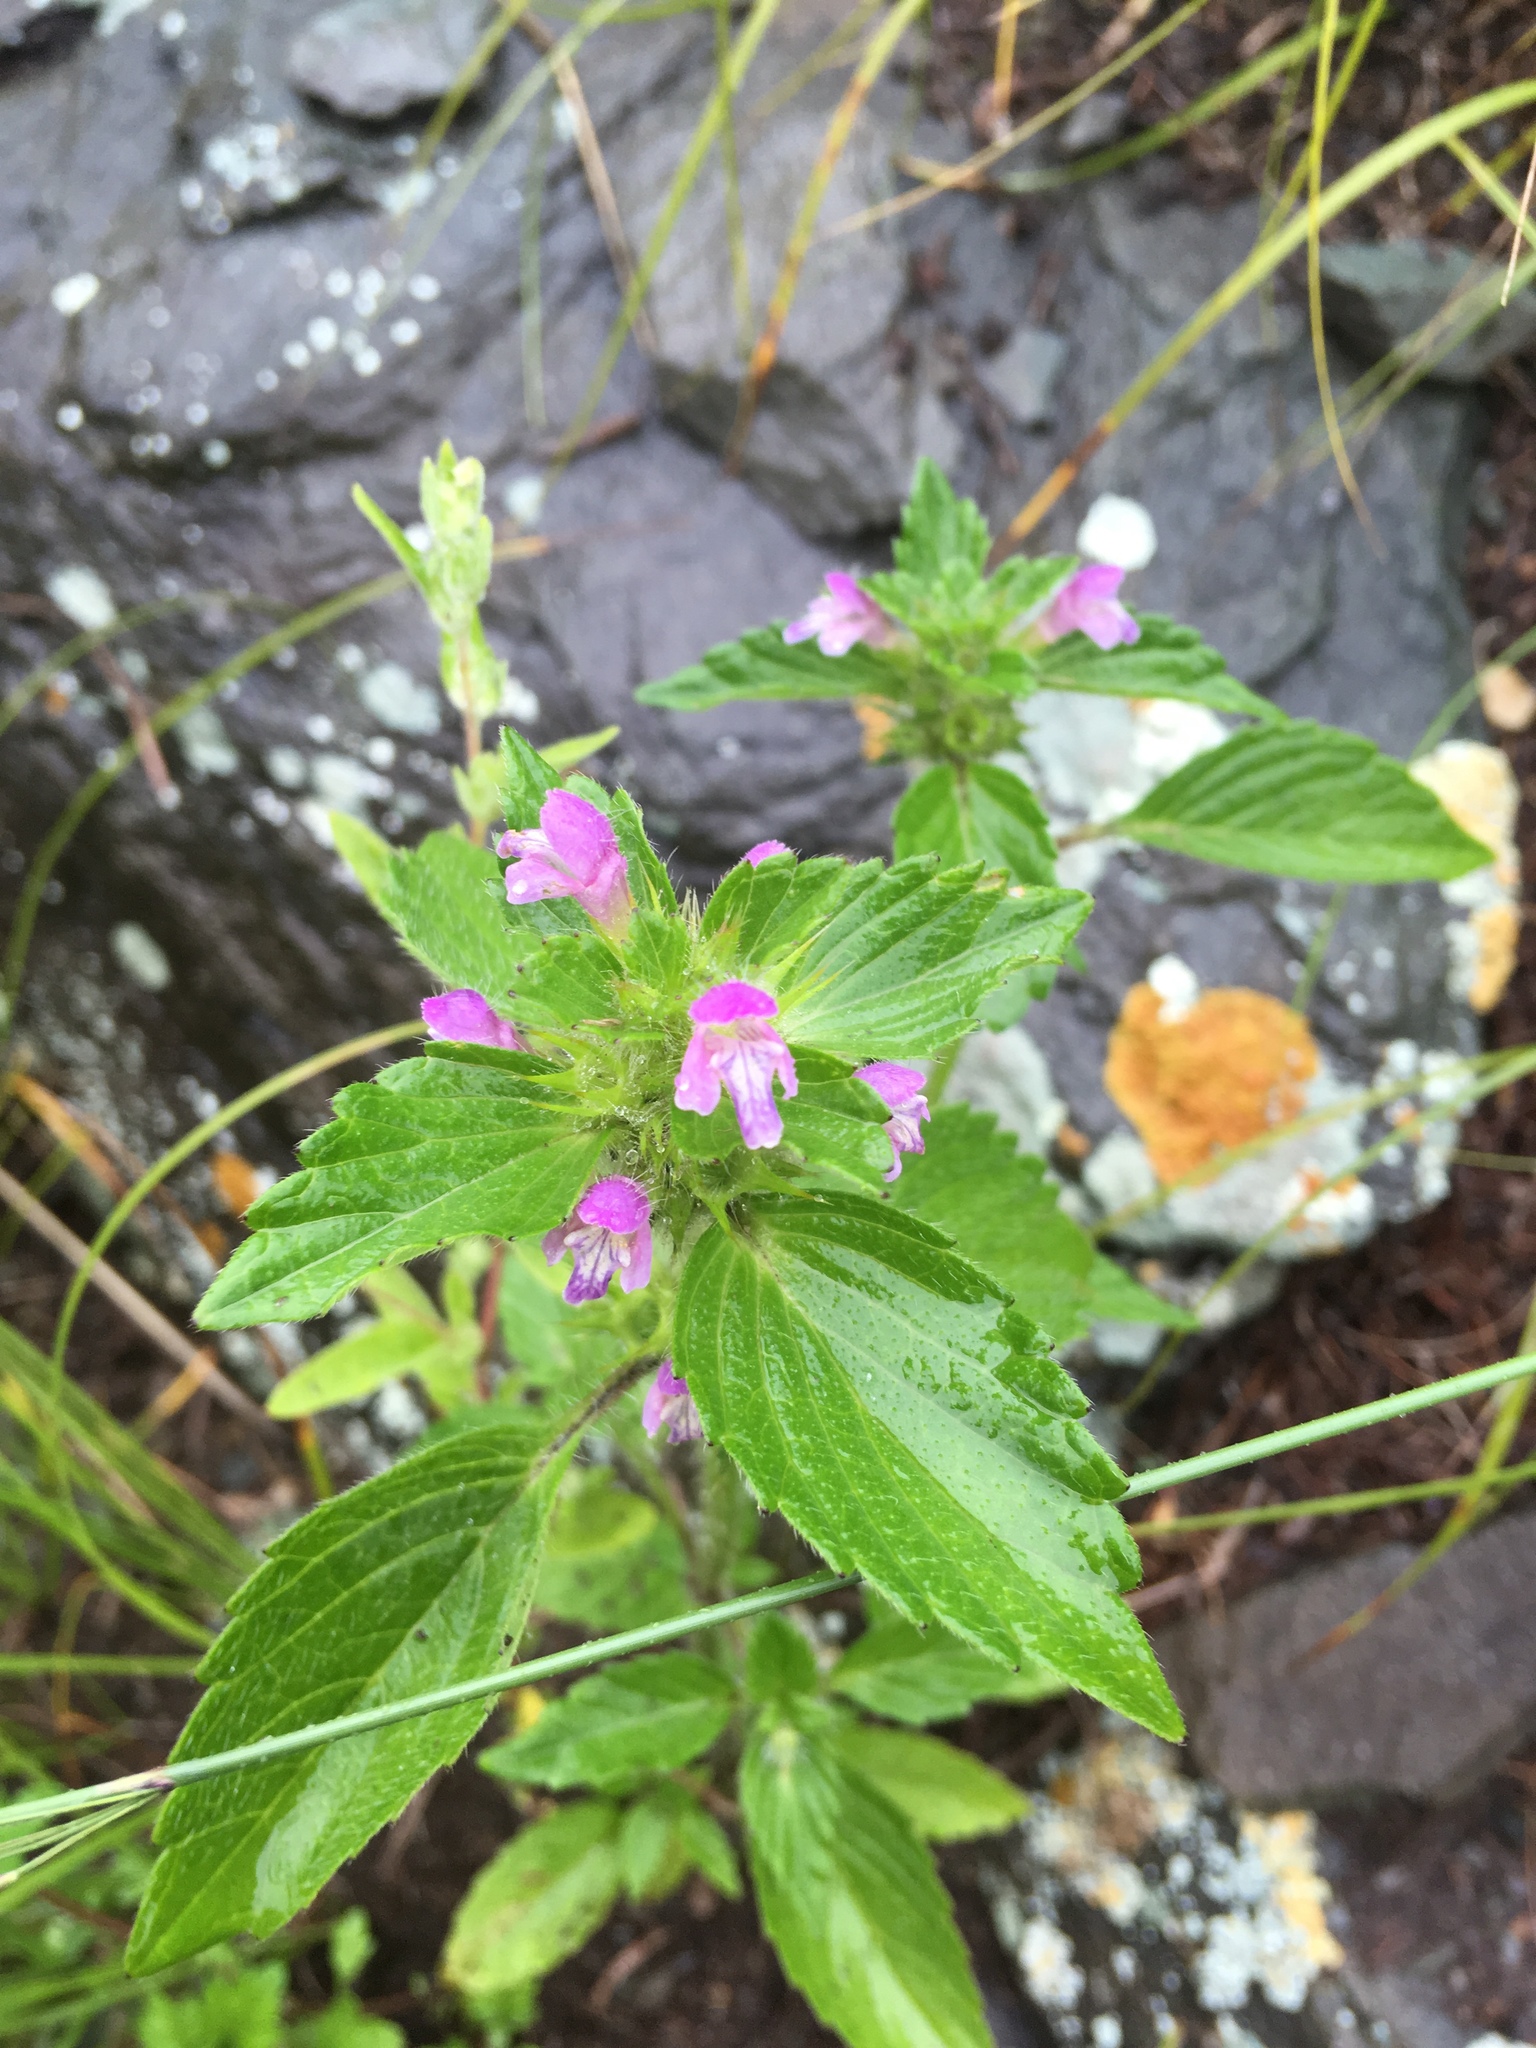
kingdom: Plantae
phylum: Tracheophyta
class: Magnoliopsida
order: Lamiales
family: Lamiaceae
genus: Galeopsis
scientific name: Galeopsis bifida
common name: Bifid hemp-nettle
